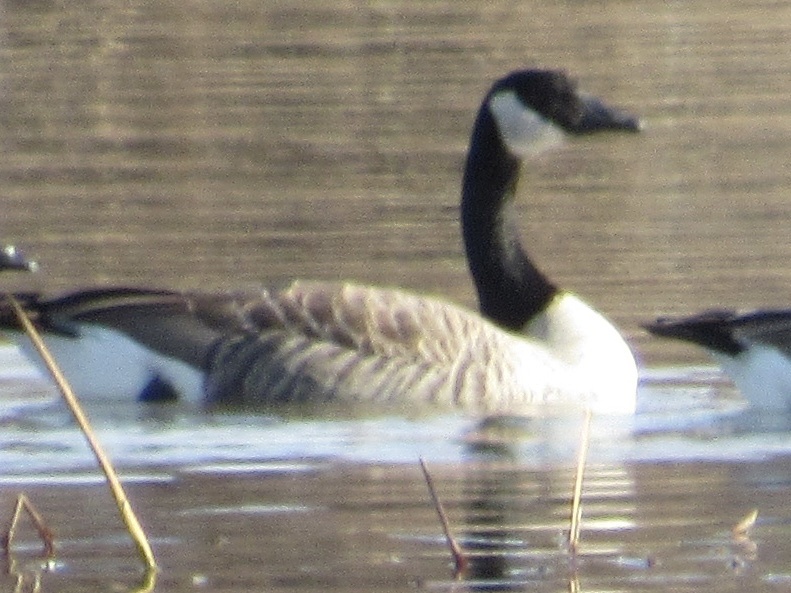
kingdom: Animalia
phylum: Chordata
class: Aves
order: Anseriformes
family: Anatidae
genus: Branta
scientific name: Branta canadensis
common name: Canada goose
